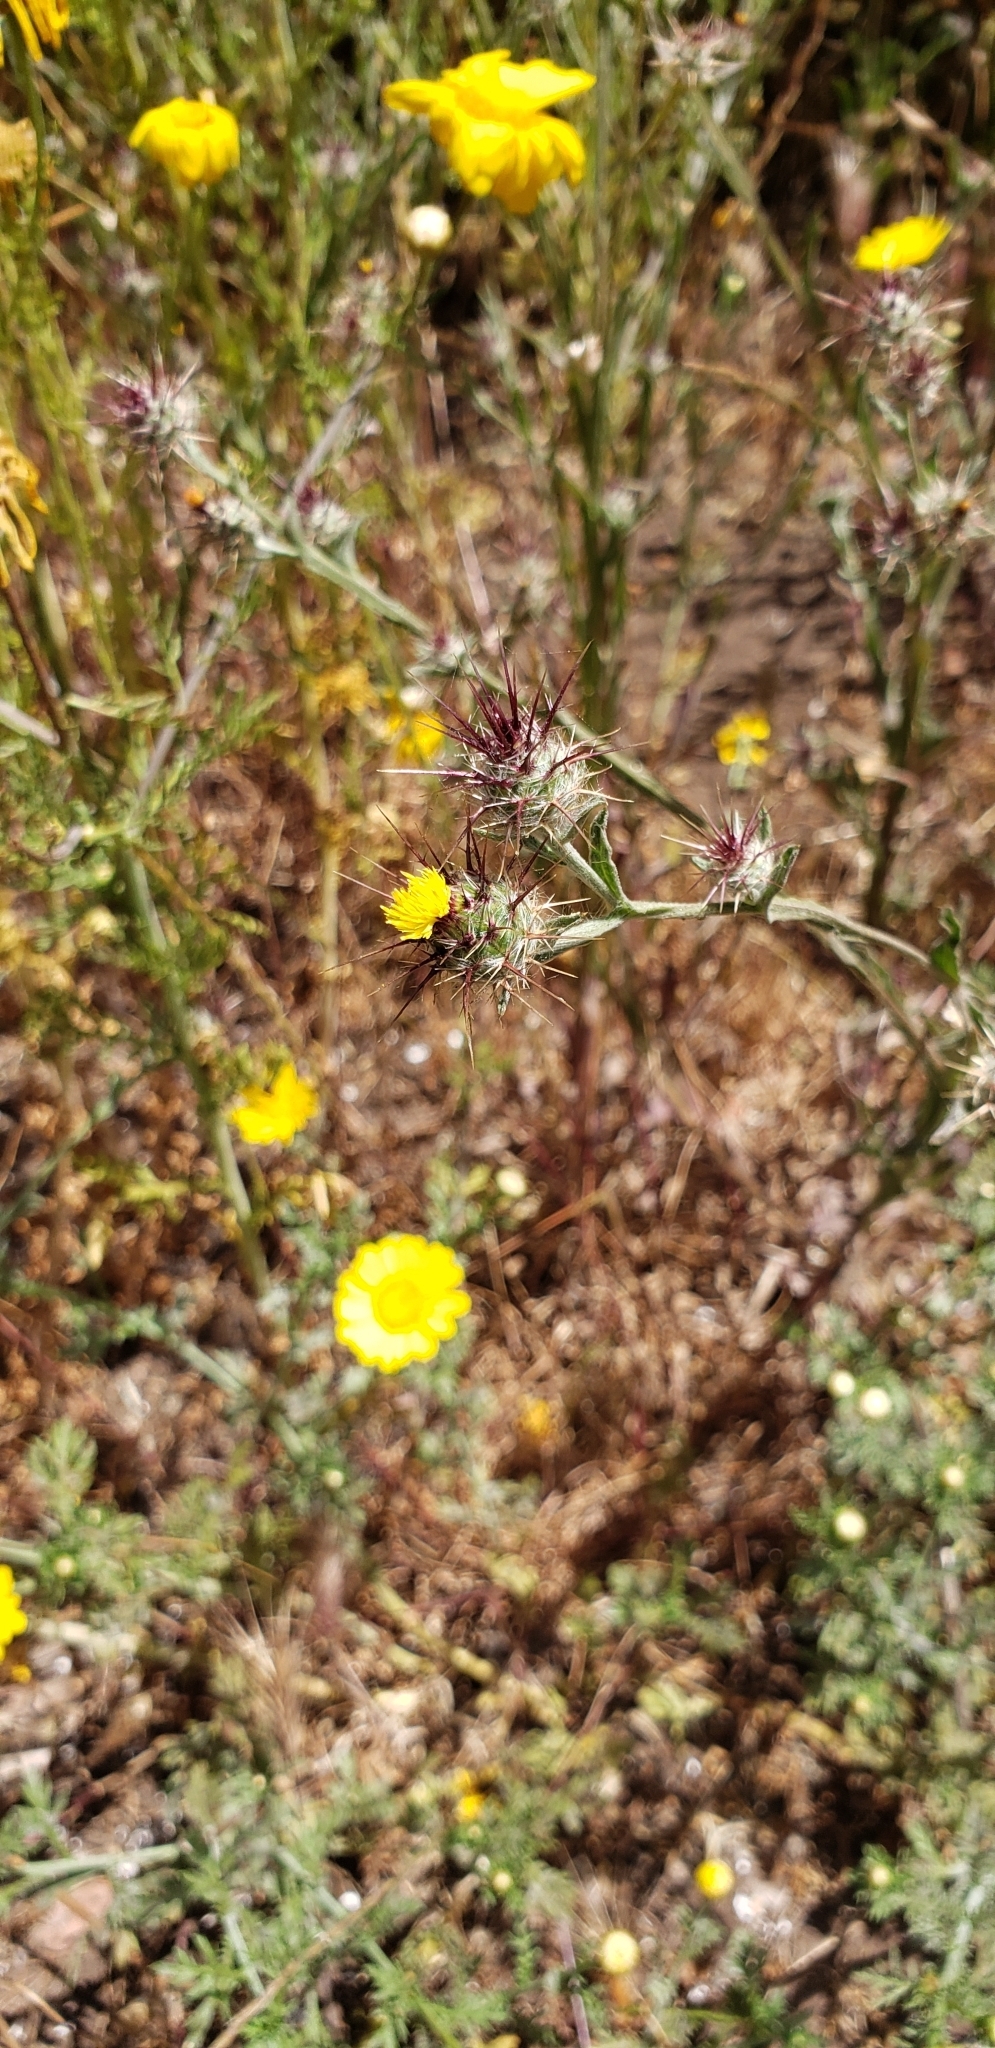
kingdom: Plantae
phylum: Tracheophyta
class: Magnoliopsida
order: Asterales
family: Asteraceae
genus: Centaurea
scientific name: Centaurea melitensis
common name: Maltese star-thistle
